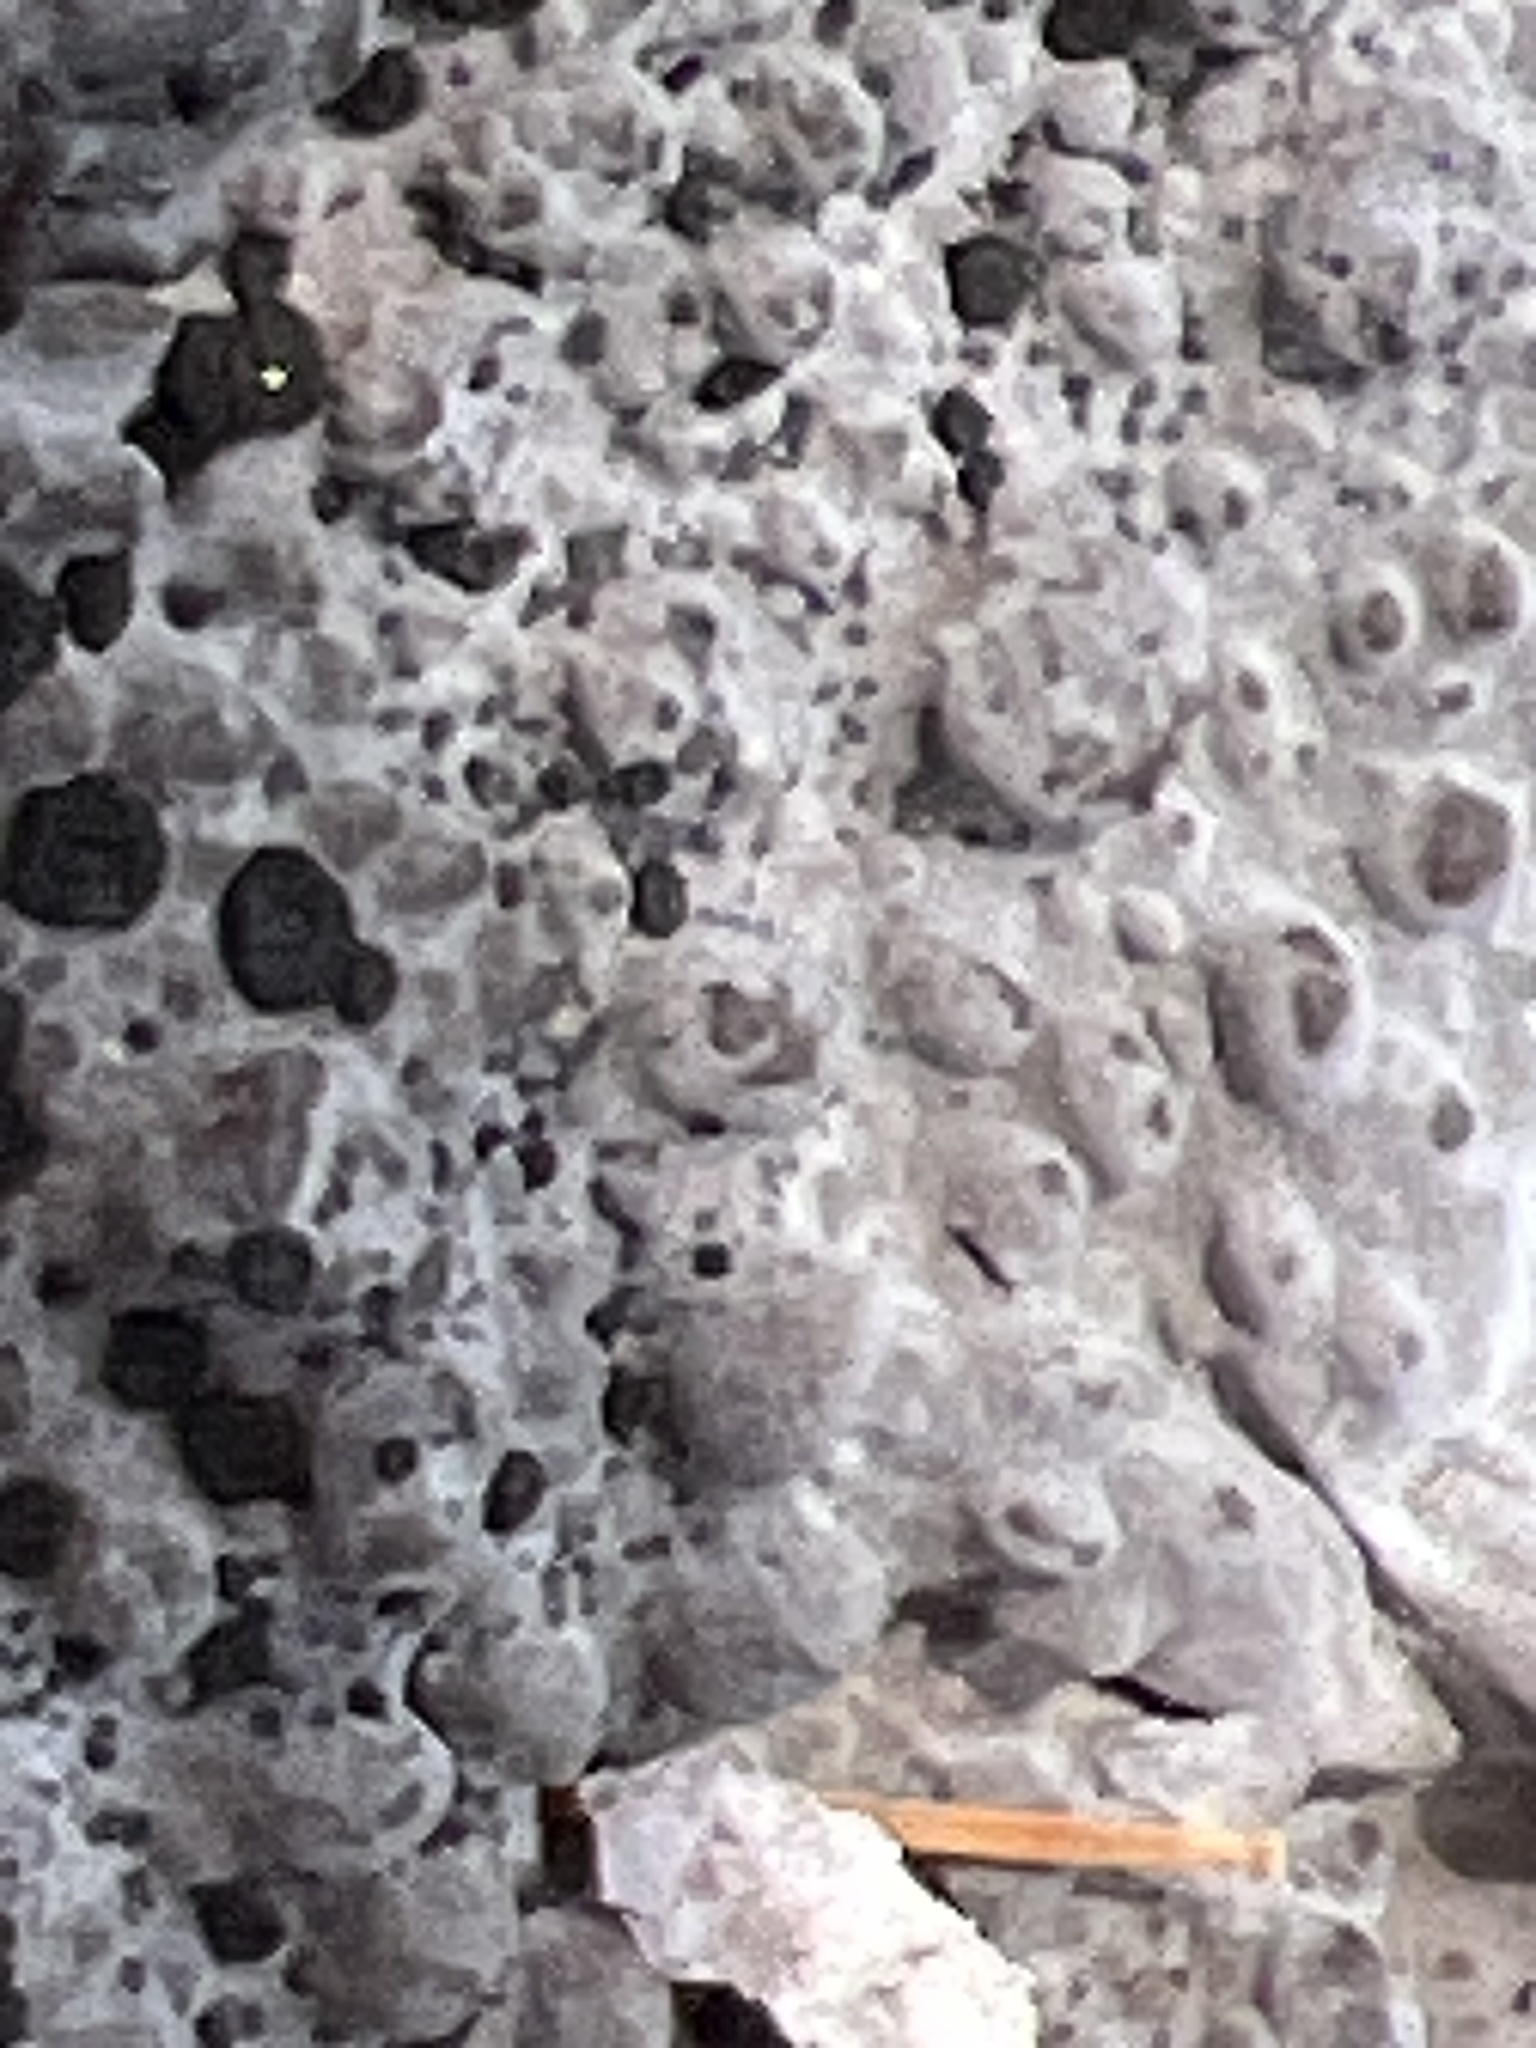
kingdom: Fungi
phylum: Ascomycota
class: Lecanoromycetes
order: Umbilicariales
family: Umbilicariaceae
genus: Lasallia
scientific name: Lasallia papulosa
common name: Common toadskin lichen
